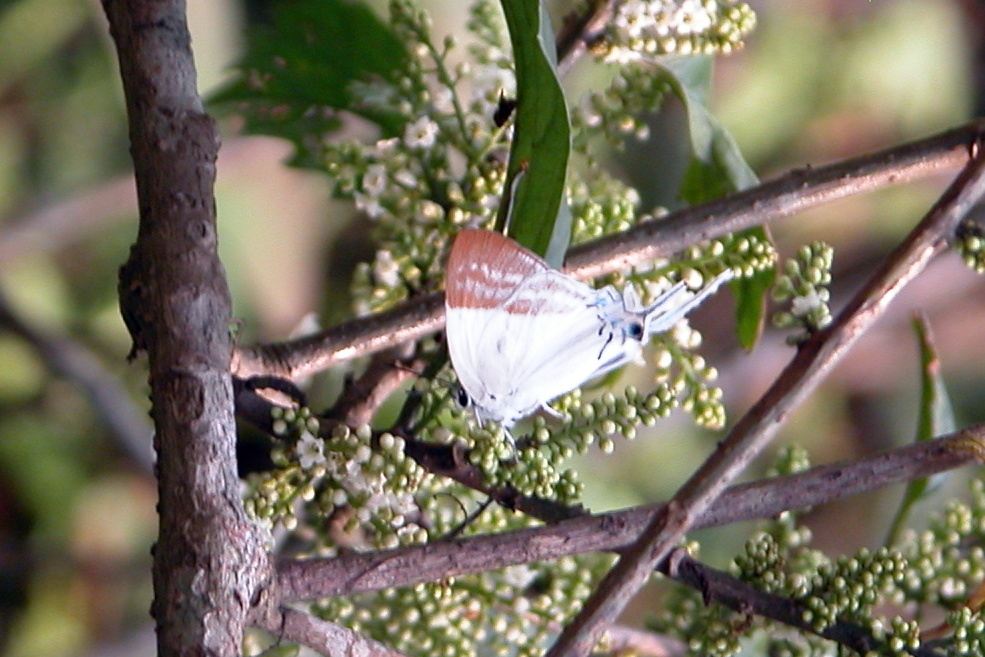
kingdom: Animalia
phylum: Arthropoda
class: Insecta
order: Lepidoptera
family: Lycaenidae
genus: Neocheritra
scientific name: Neocheritra
